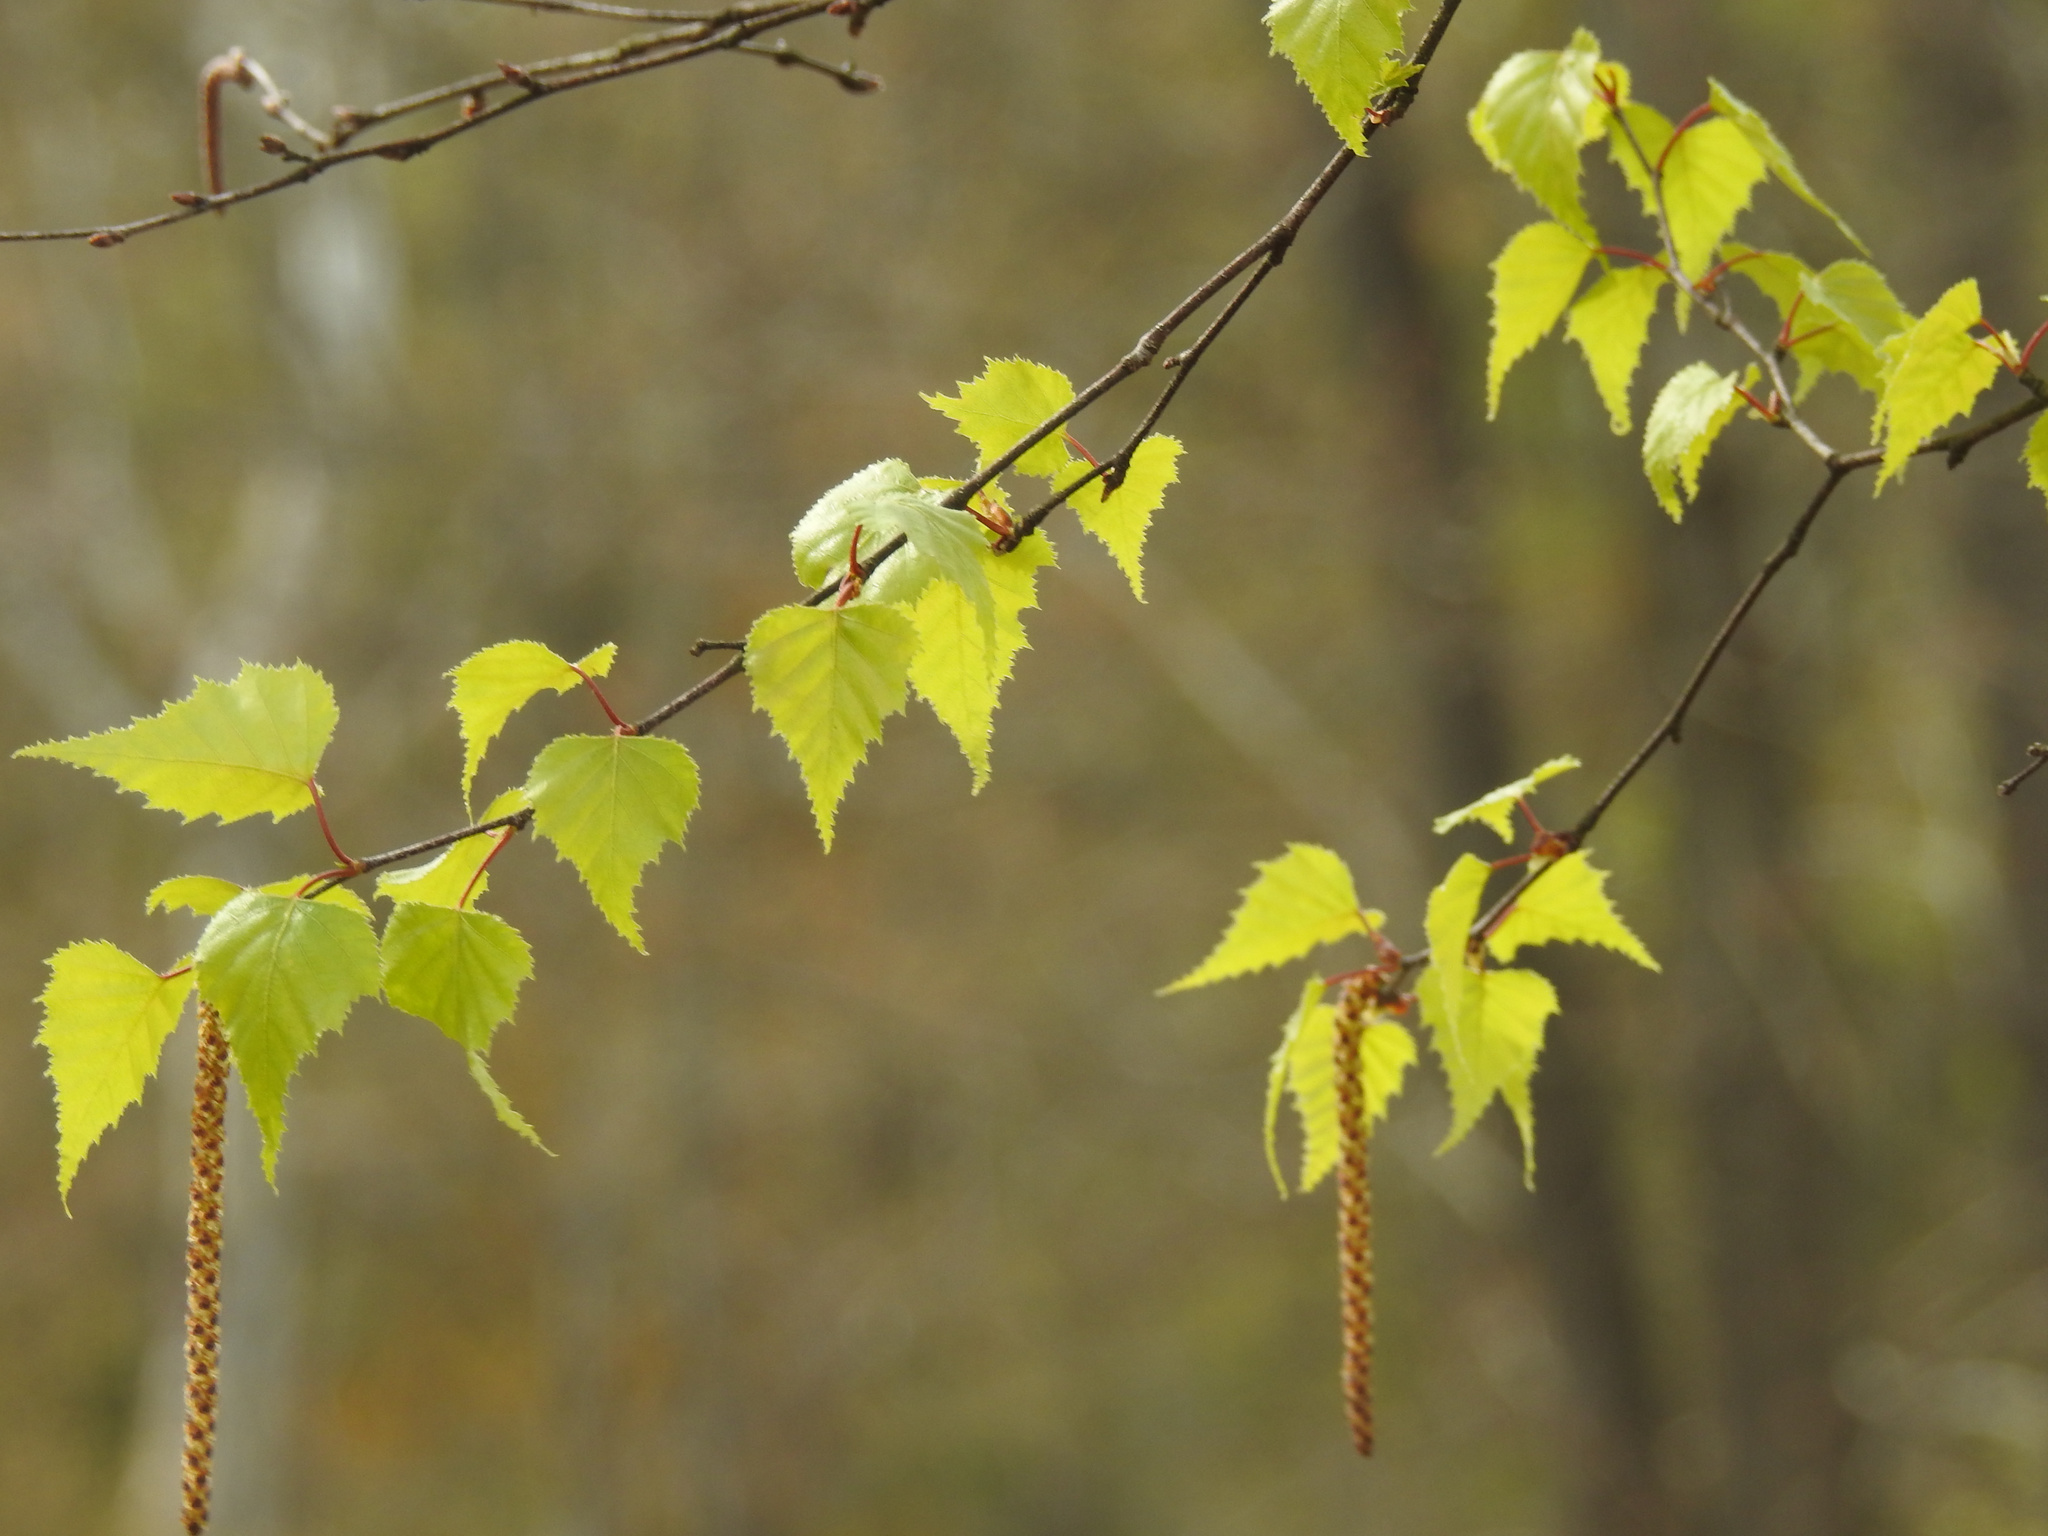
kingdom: Plantae
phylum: Tracheophyta
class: Magnoliopsida
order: Fagales
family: Betulaceae
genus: Betula
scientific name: Betula populifolia
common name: Fire birch
